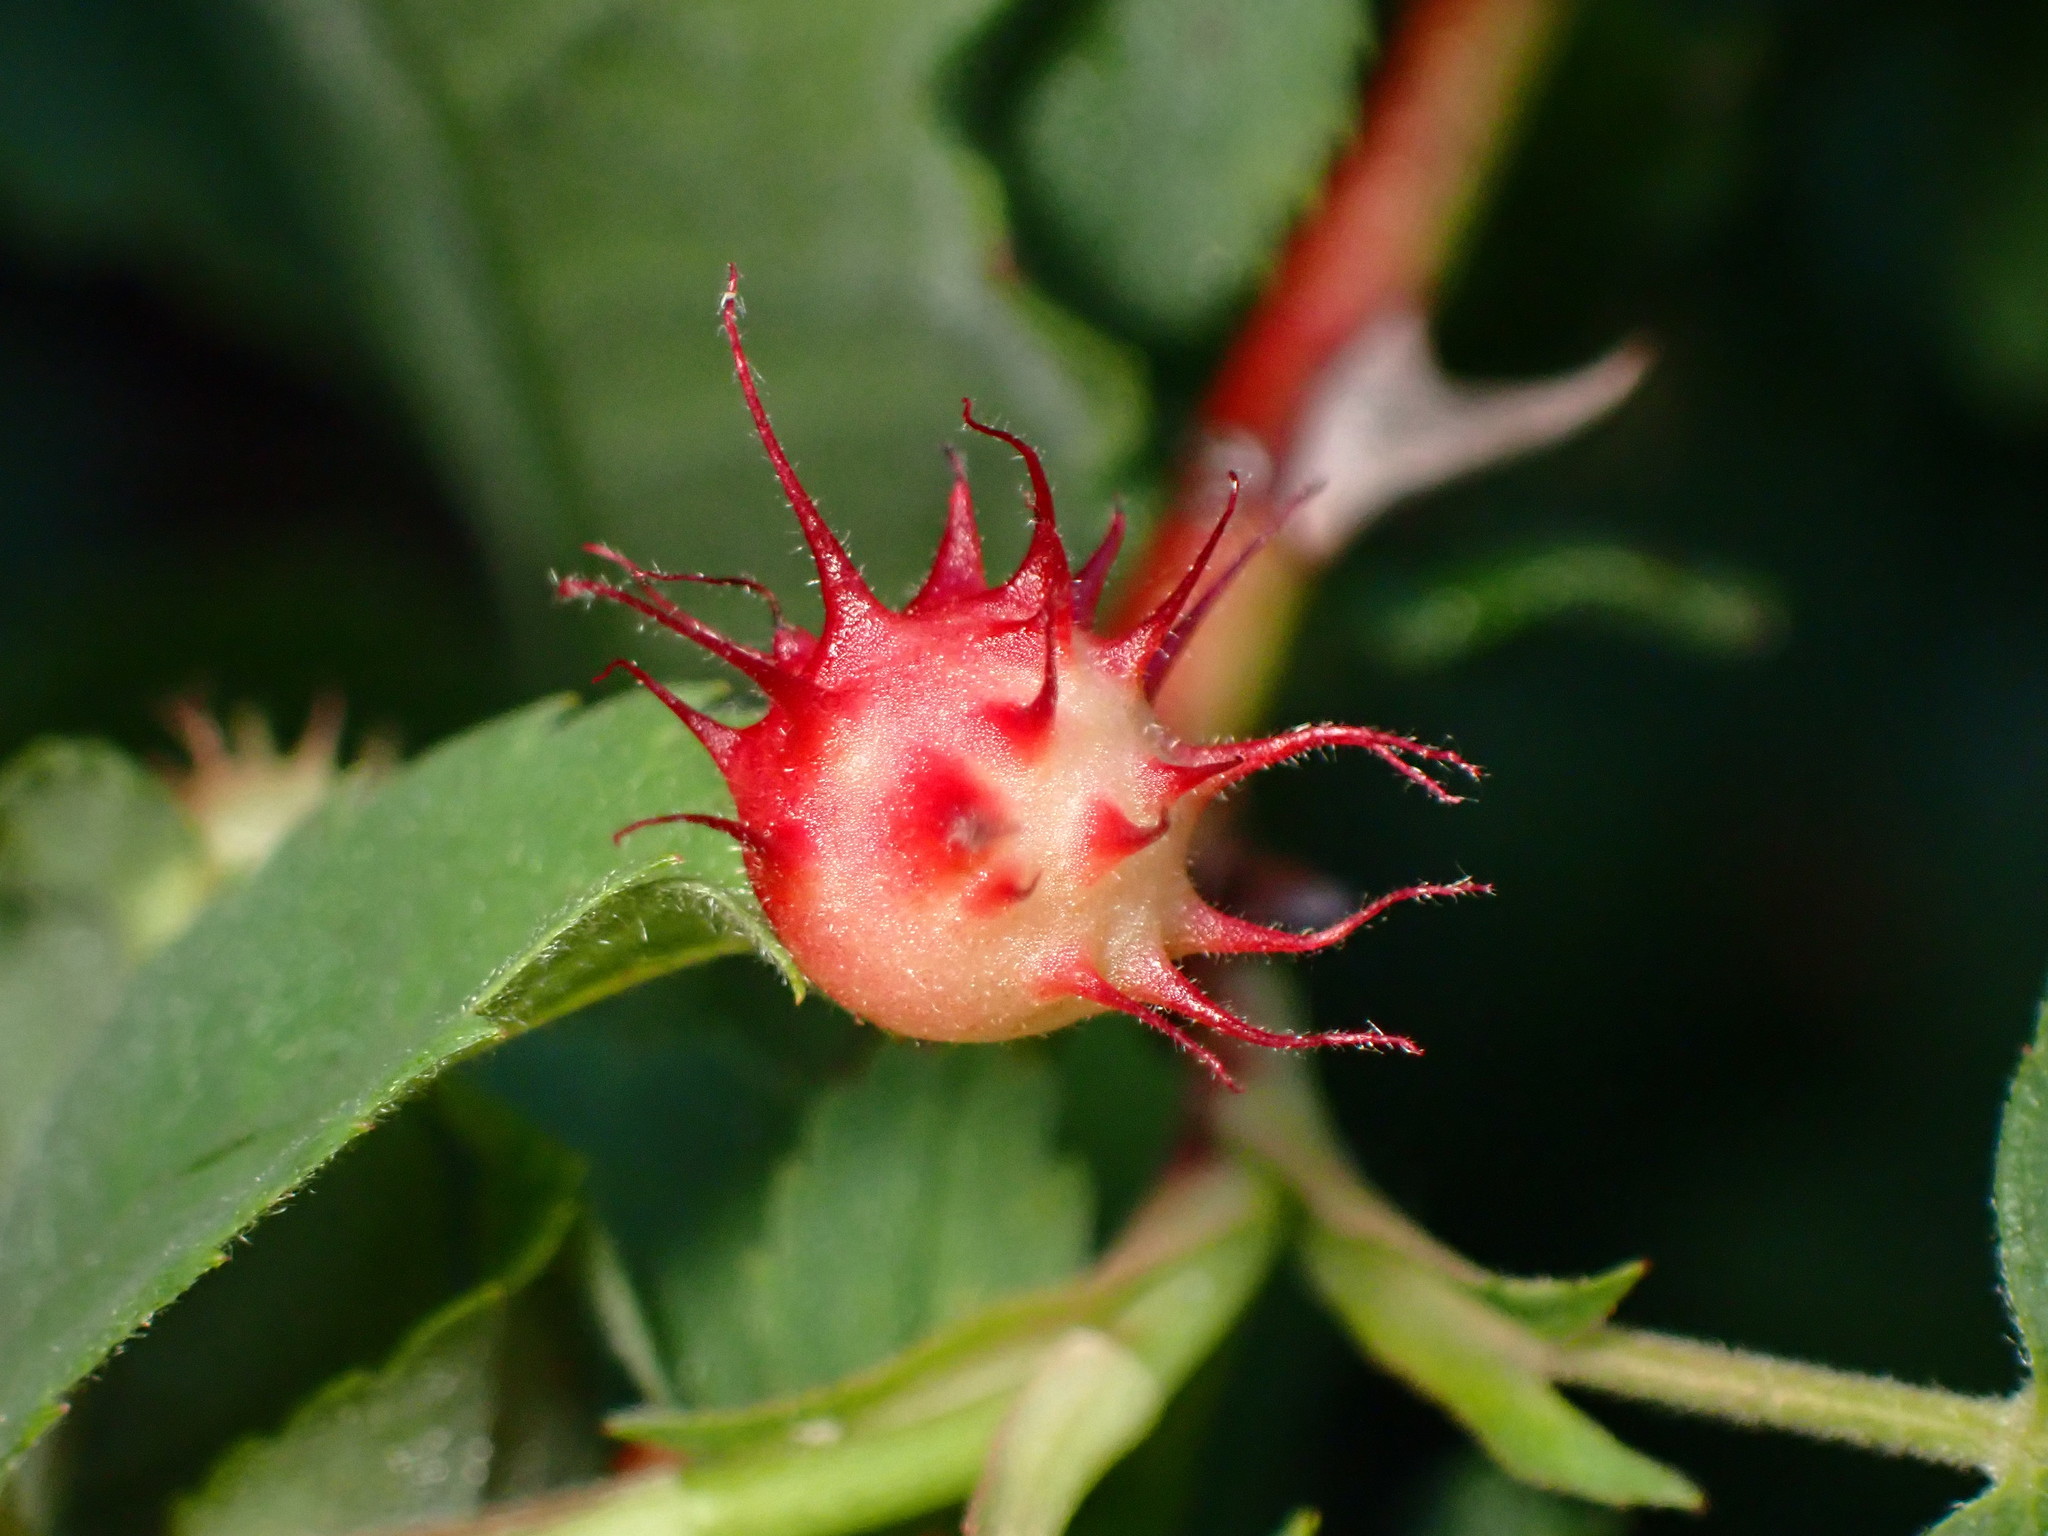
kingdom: Animalia
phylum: Arthropoda
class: Insecta
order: Hymenoptera
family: Cynipidae
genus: Diplolepis
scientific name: Diplolepis polita
